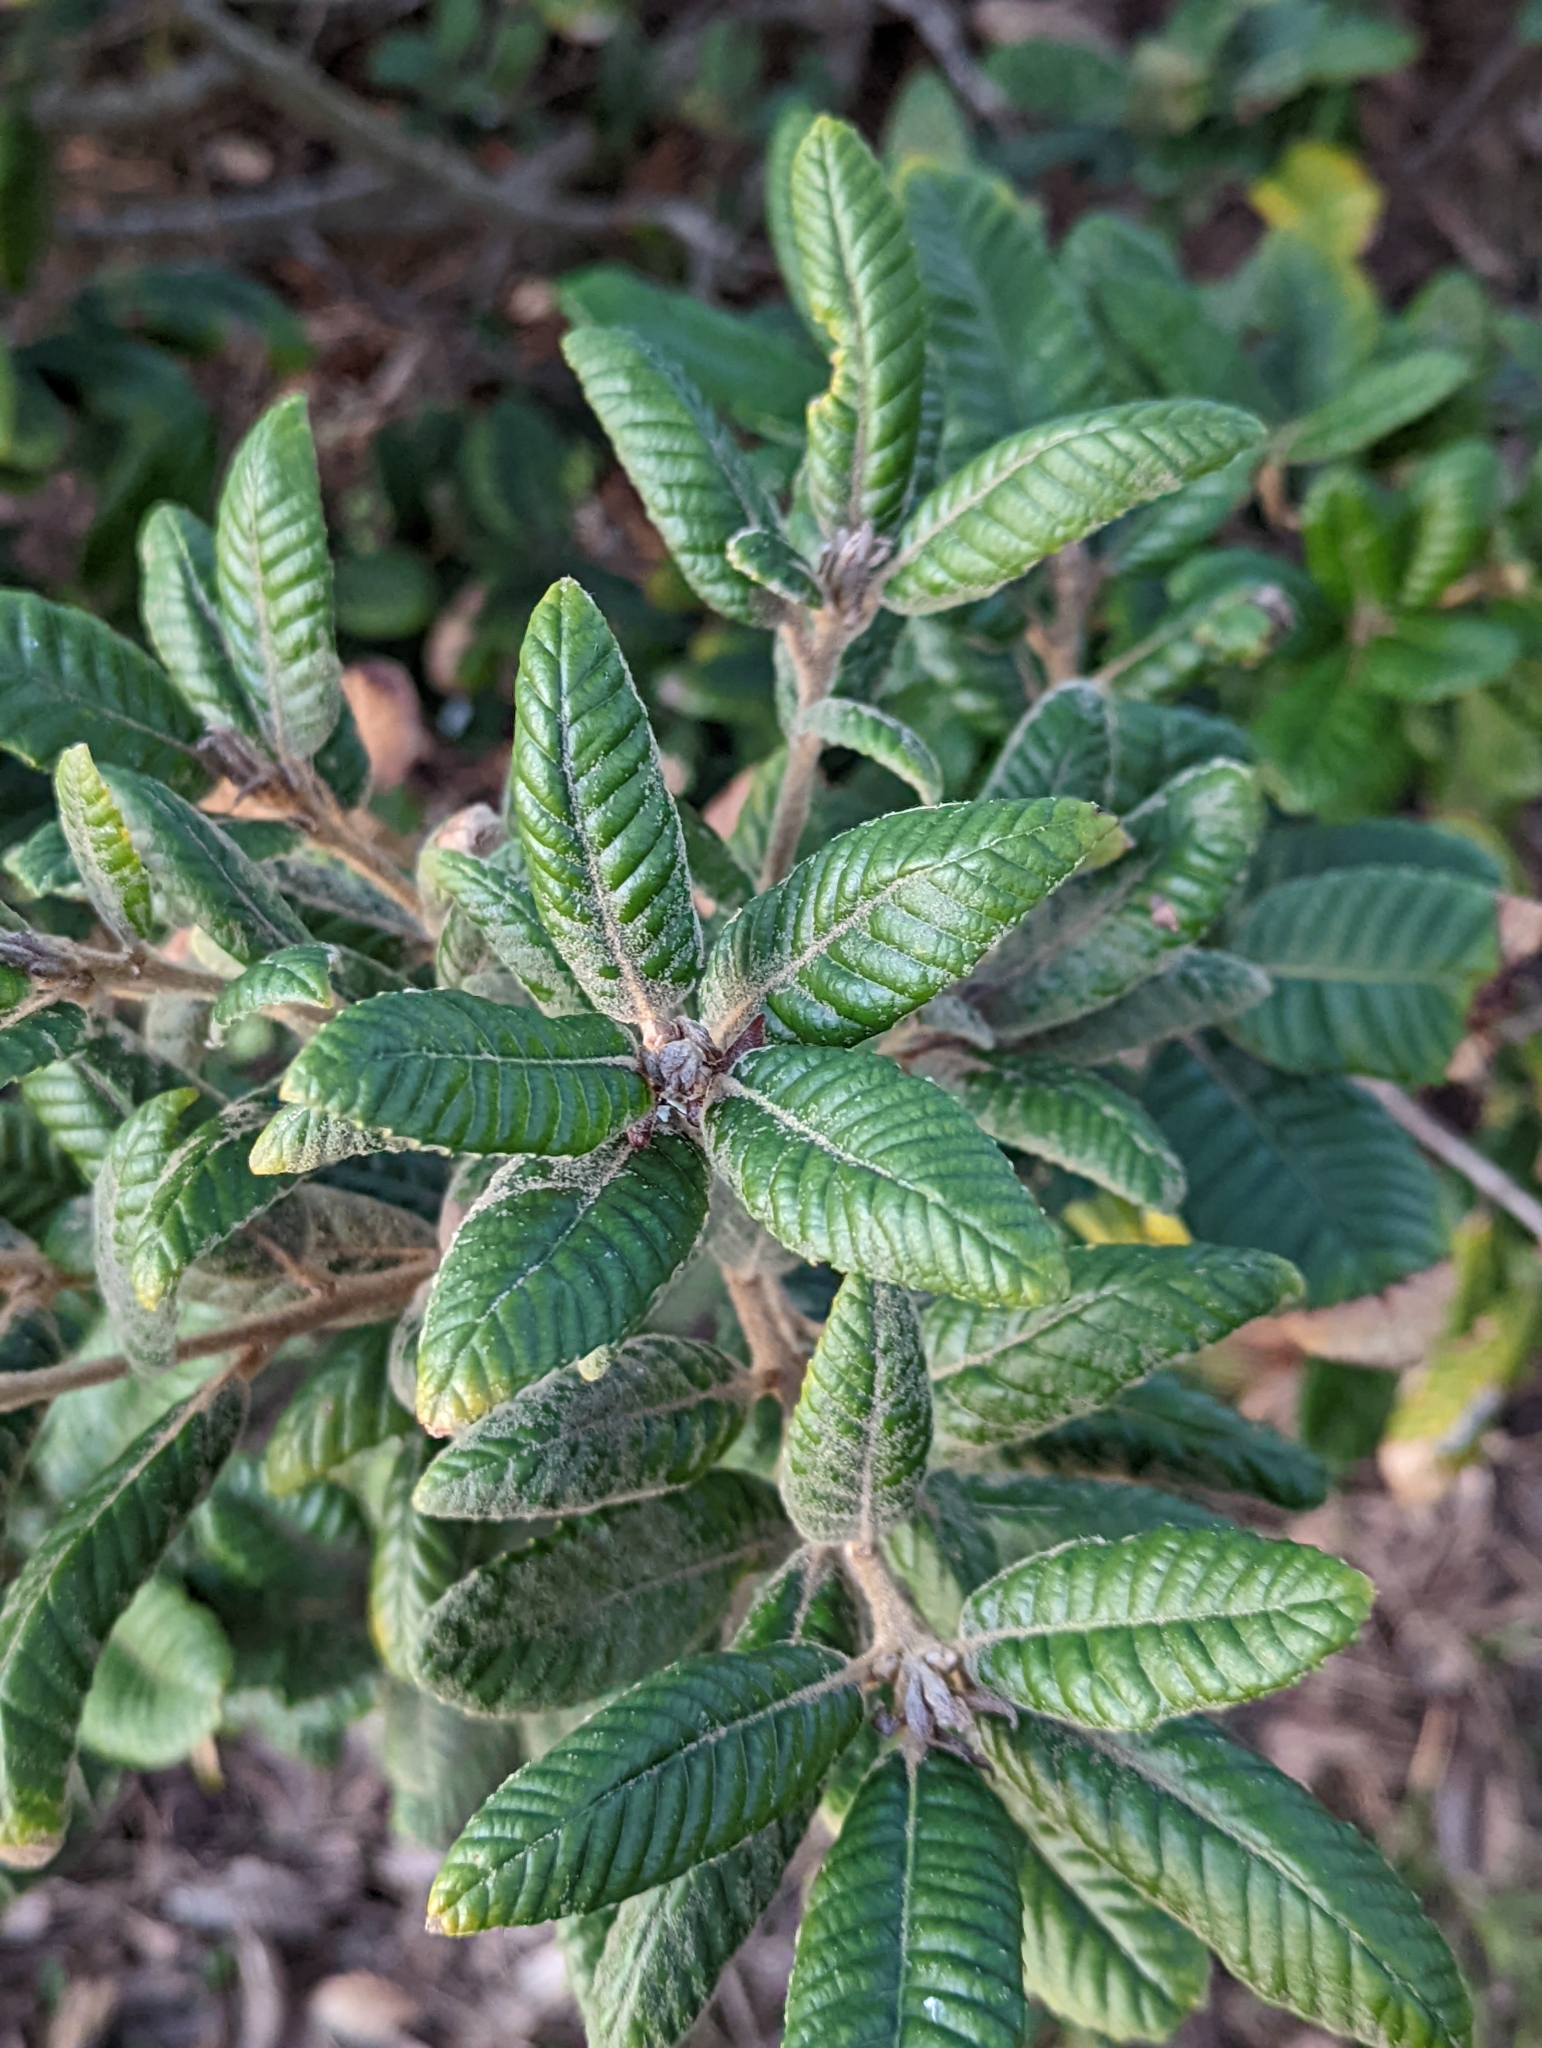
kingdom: Plantae
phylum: Tracheophyta
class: Magnoliopsida
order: Fagales
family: Fagaceae
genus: Notholithocarpus
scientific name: Notholithocarpus densiflorus
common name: Tan bark oak
